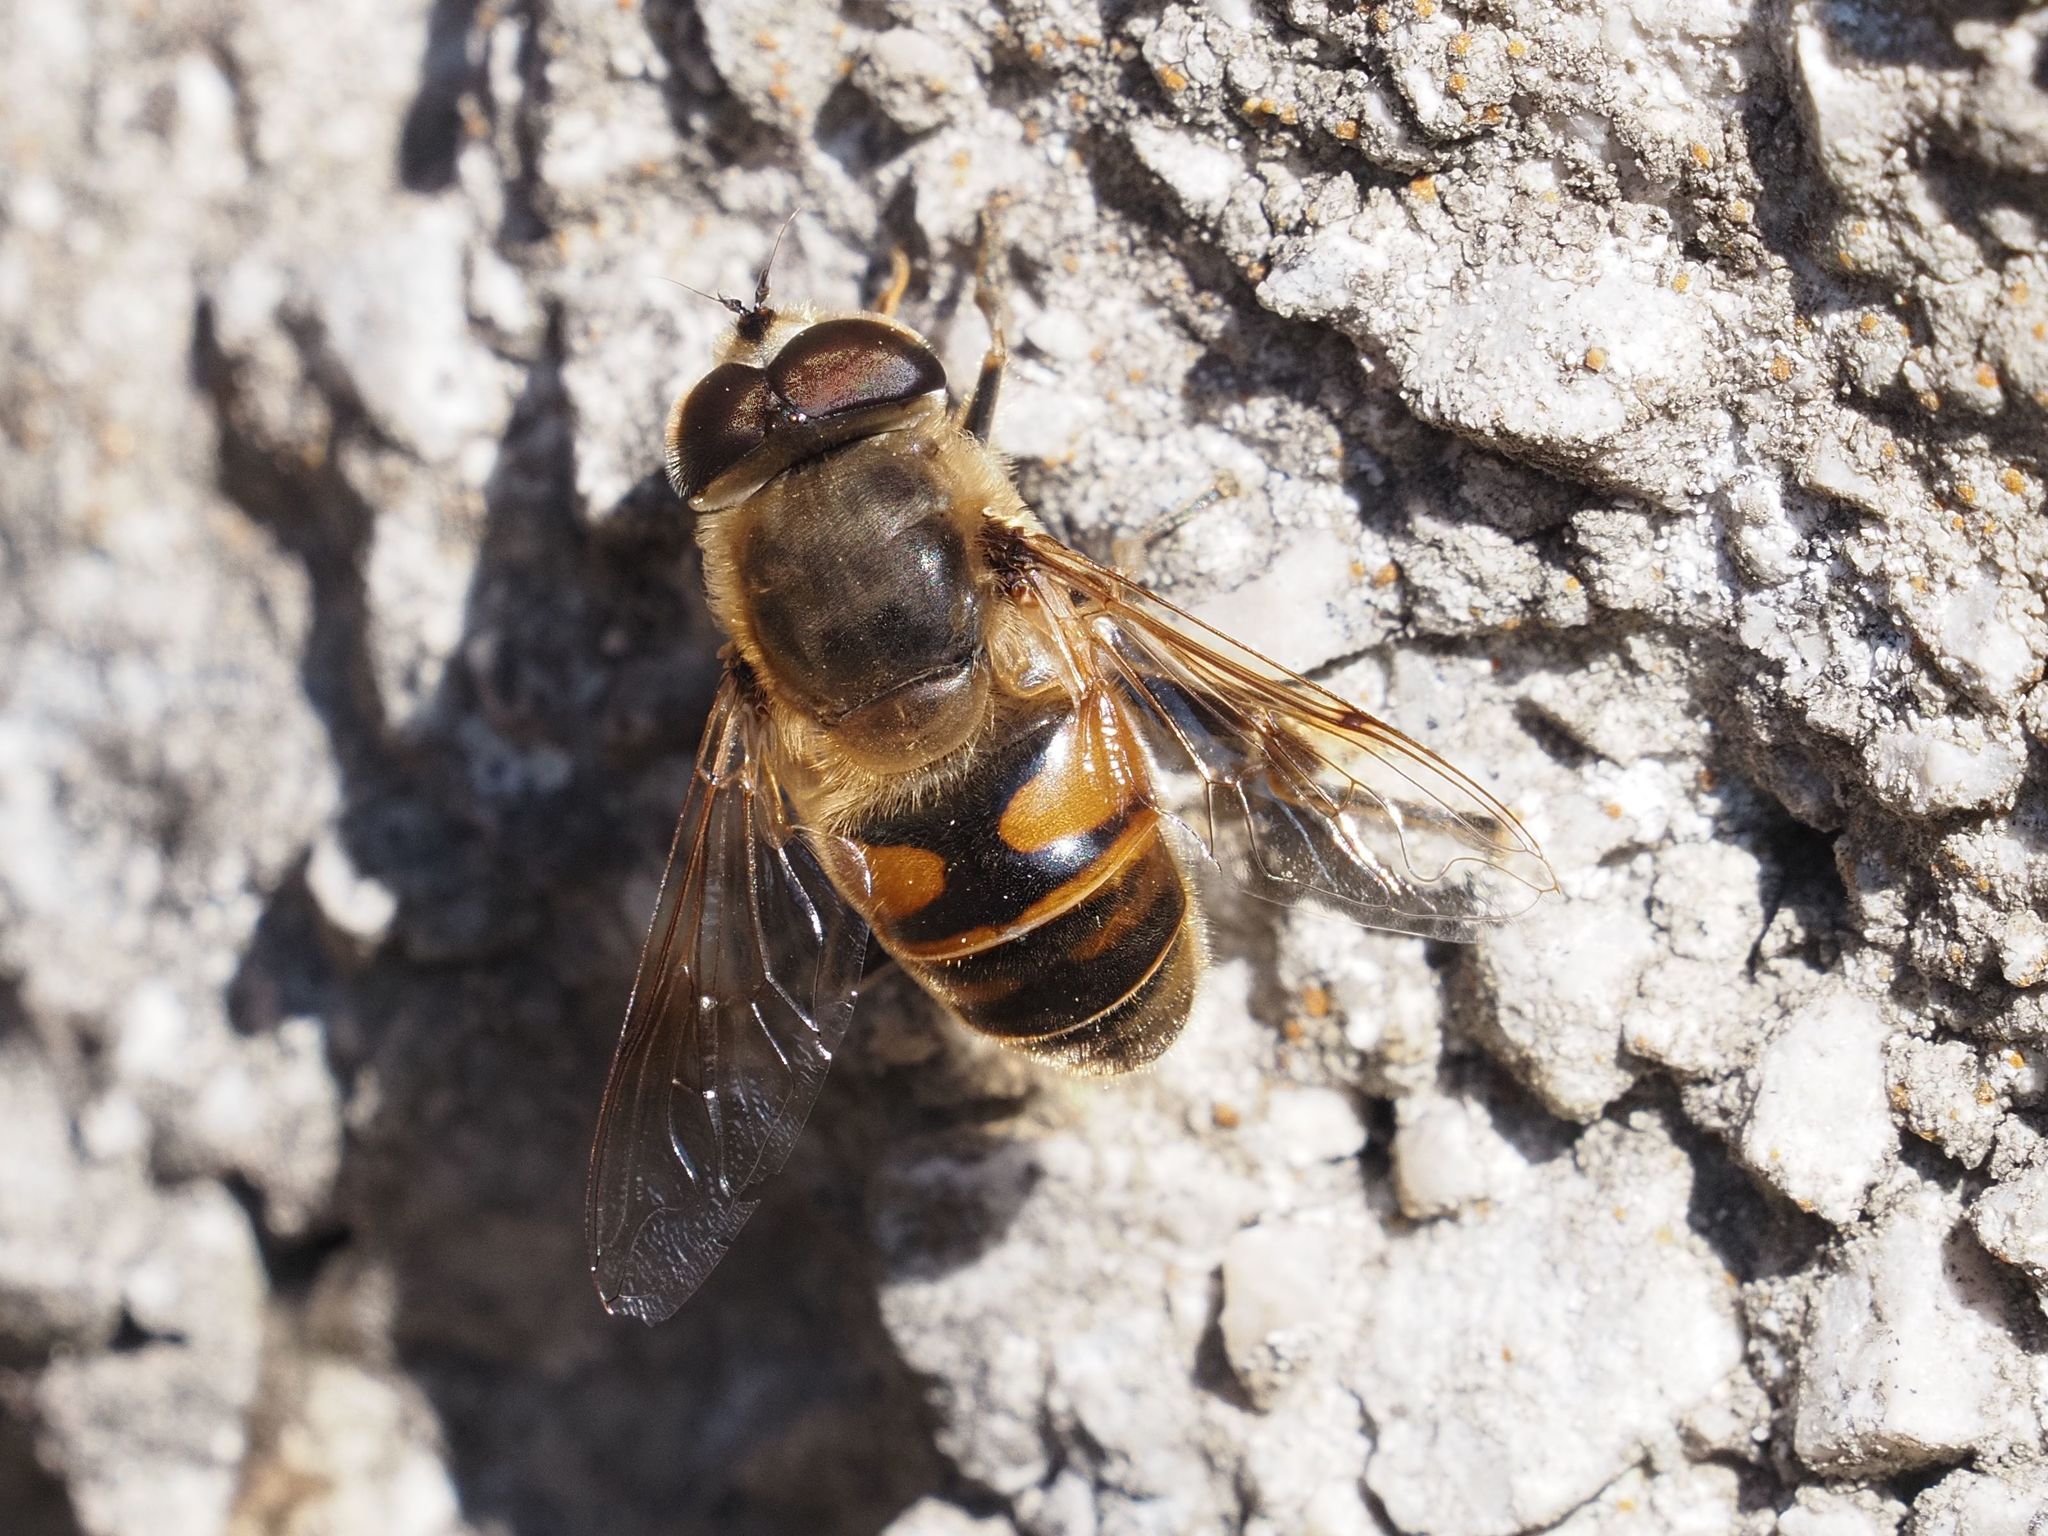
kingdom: Animalia
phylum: Arthropoda
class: Insecta
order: Diptera
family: Syrphidae
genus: Eristalis
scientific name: Eristalis tenax
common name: Drone fly
